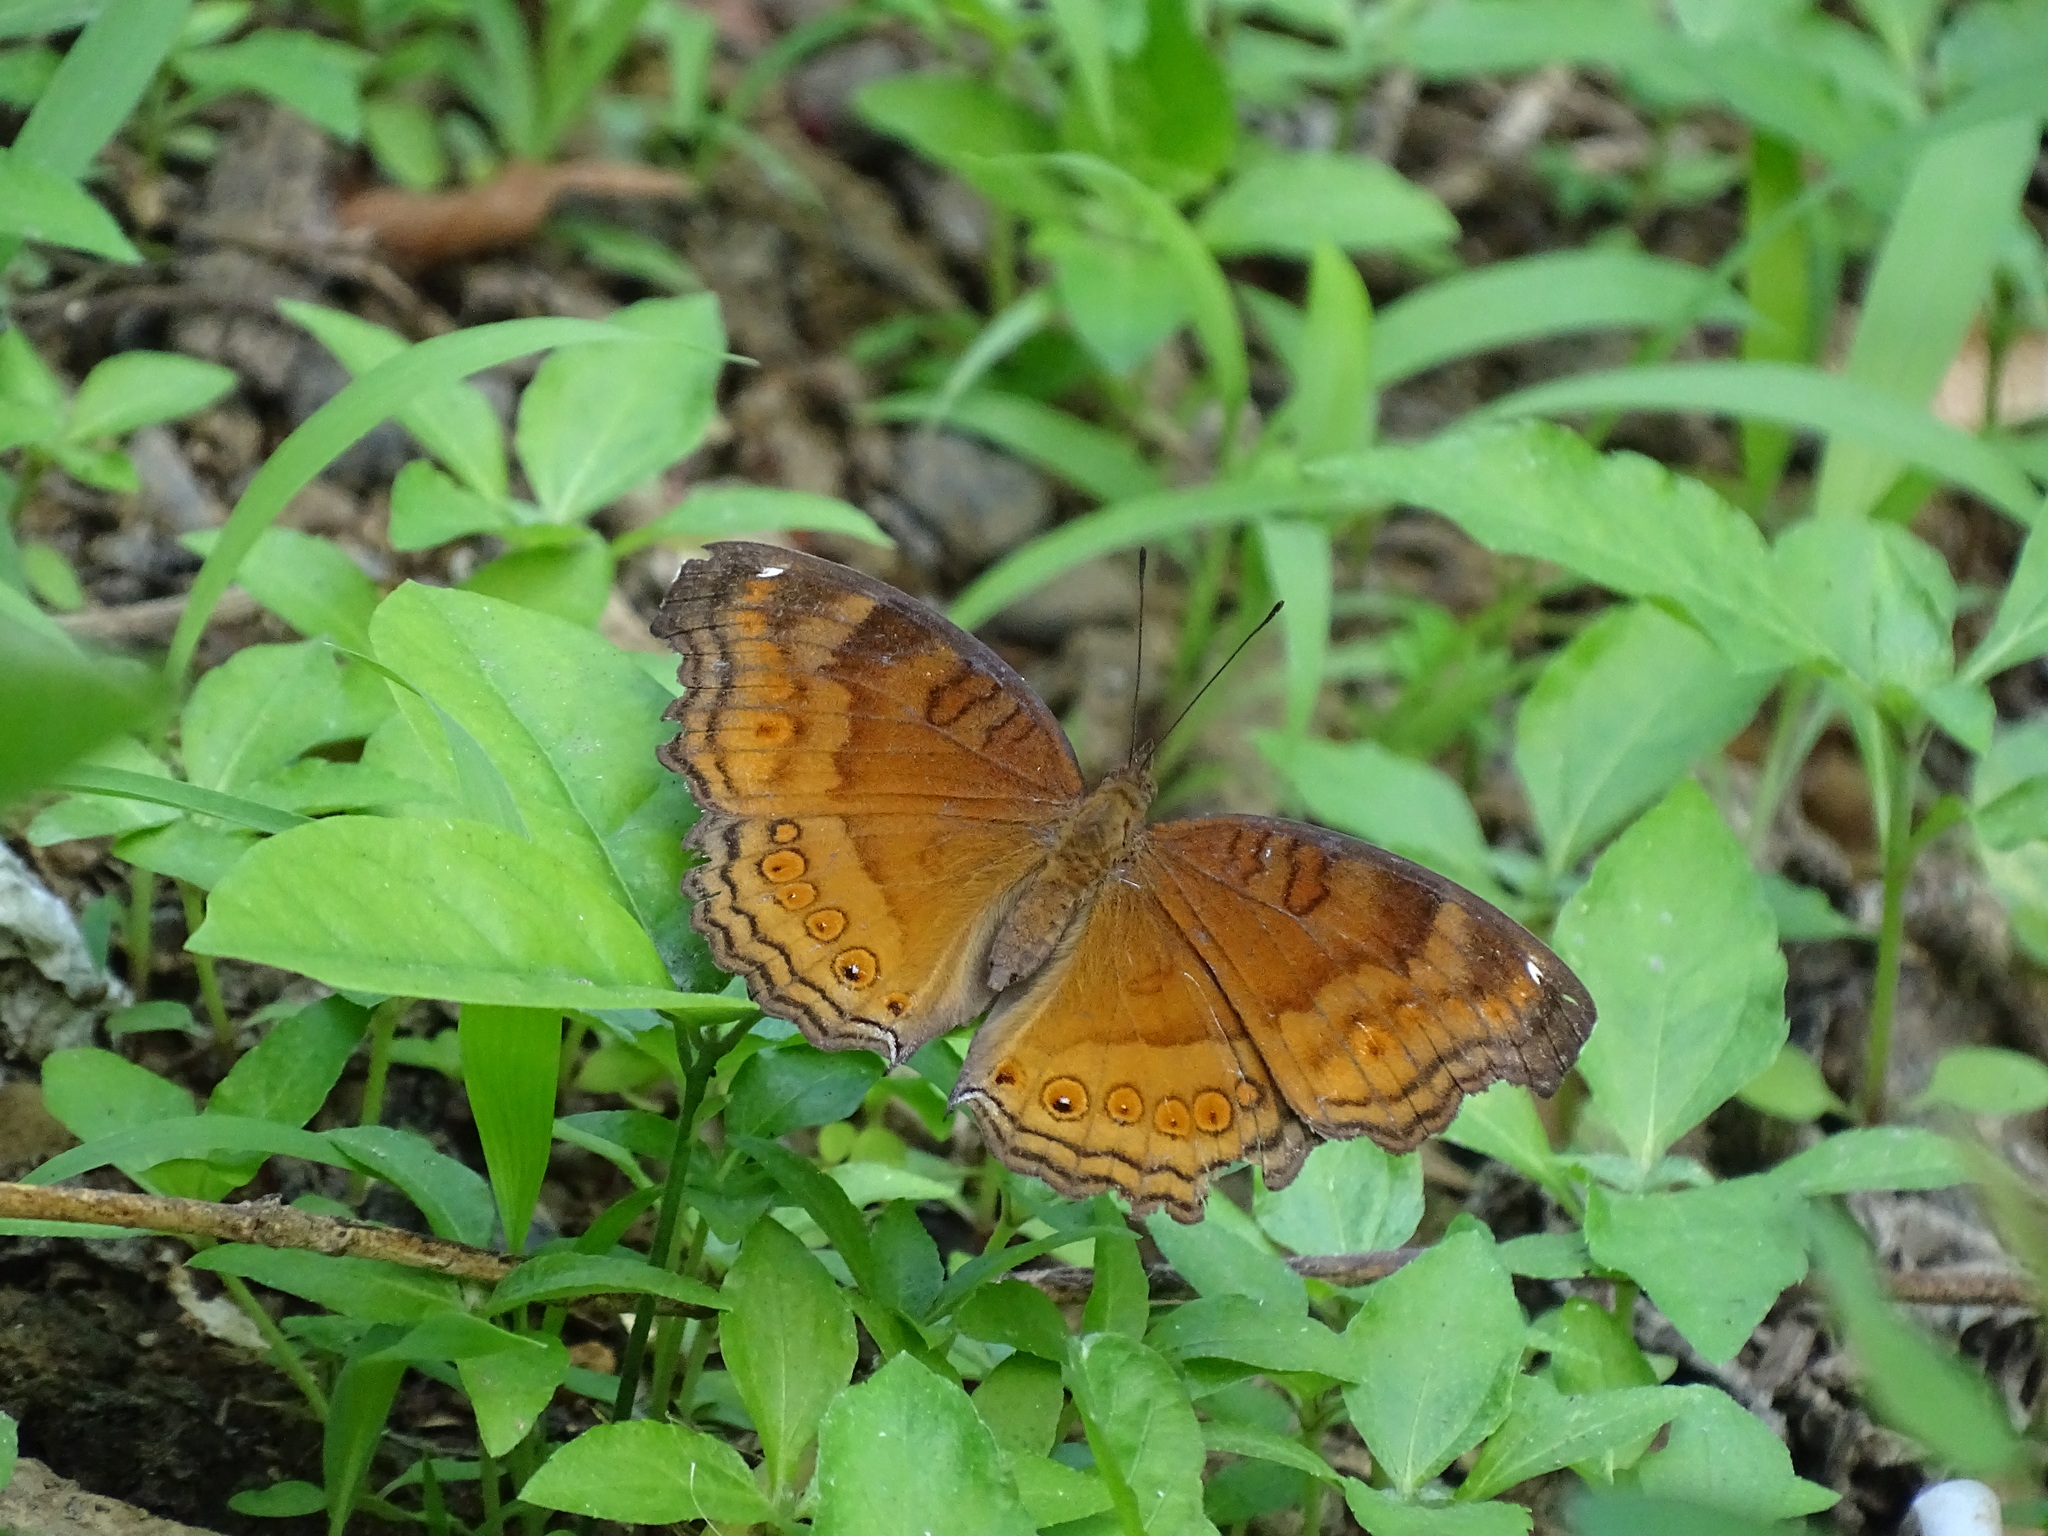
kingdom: Animalia
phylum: Arthropoda
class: Insecta
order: Lepidoptera
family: Nymphalidae
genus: Junonia
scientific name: Junonia hedonia
